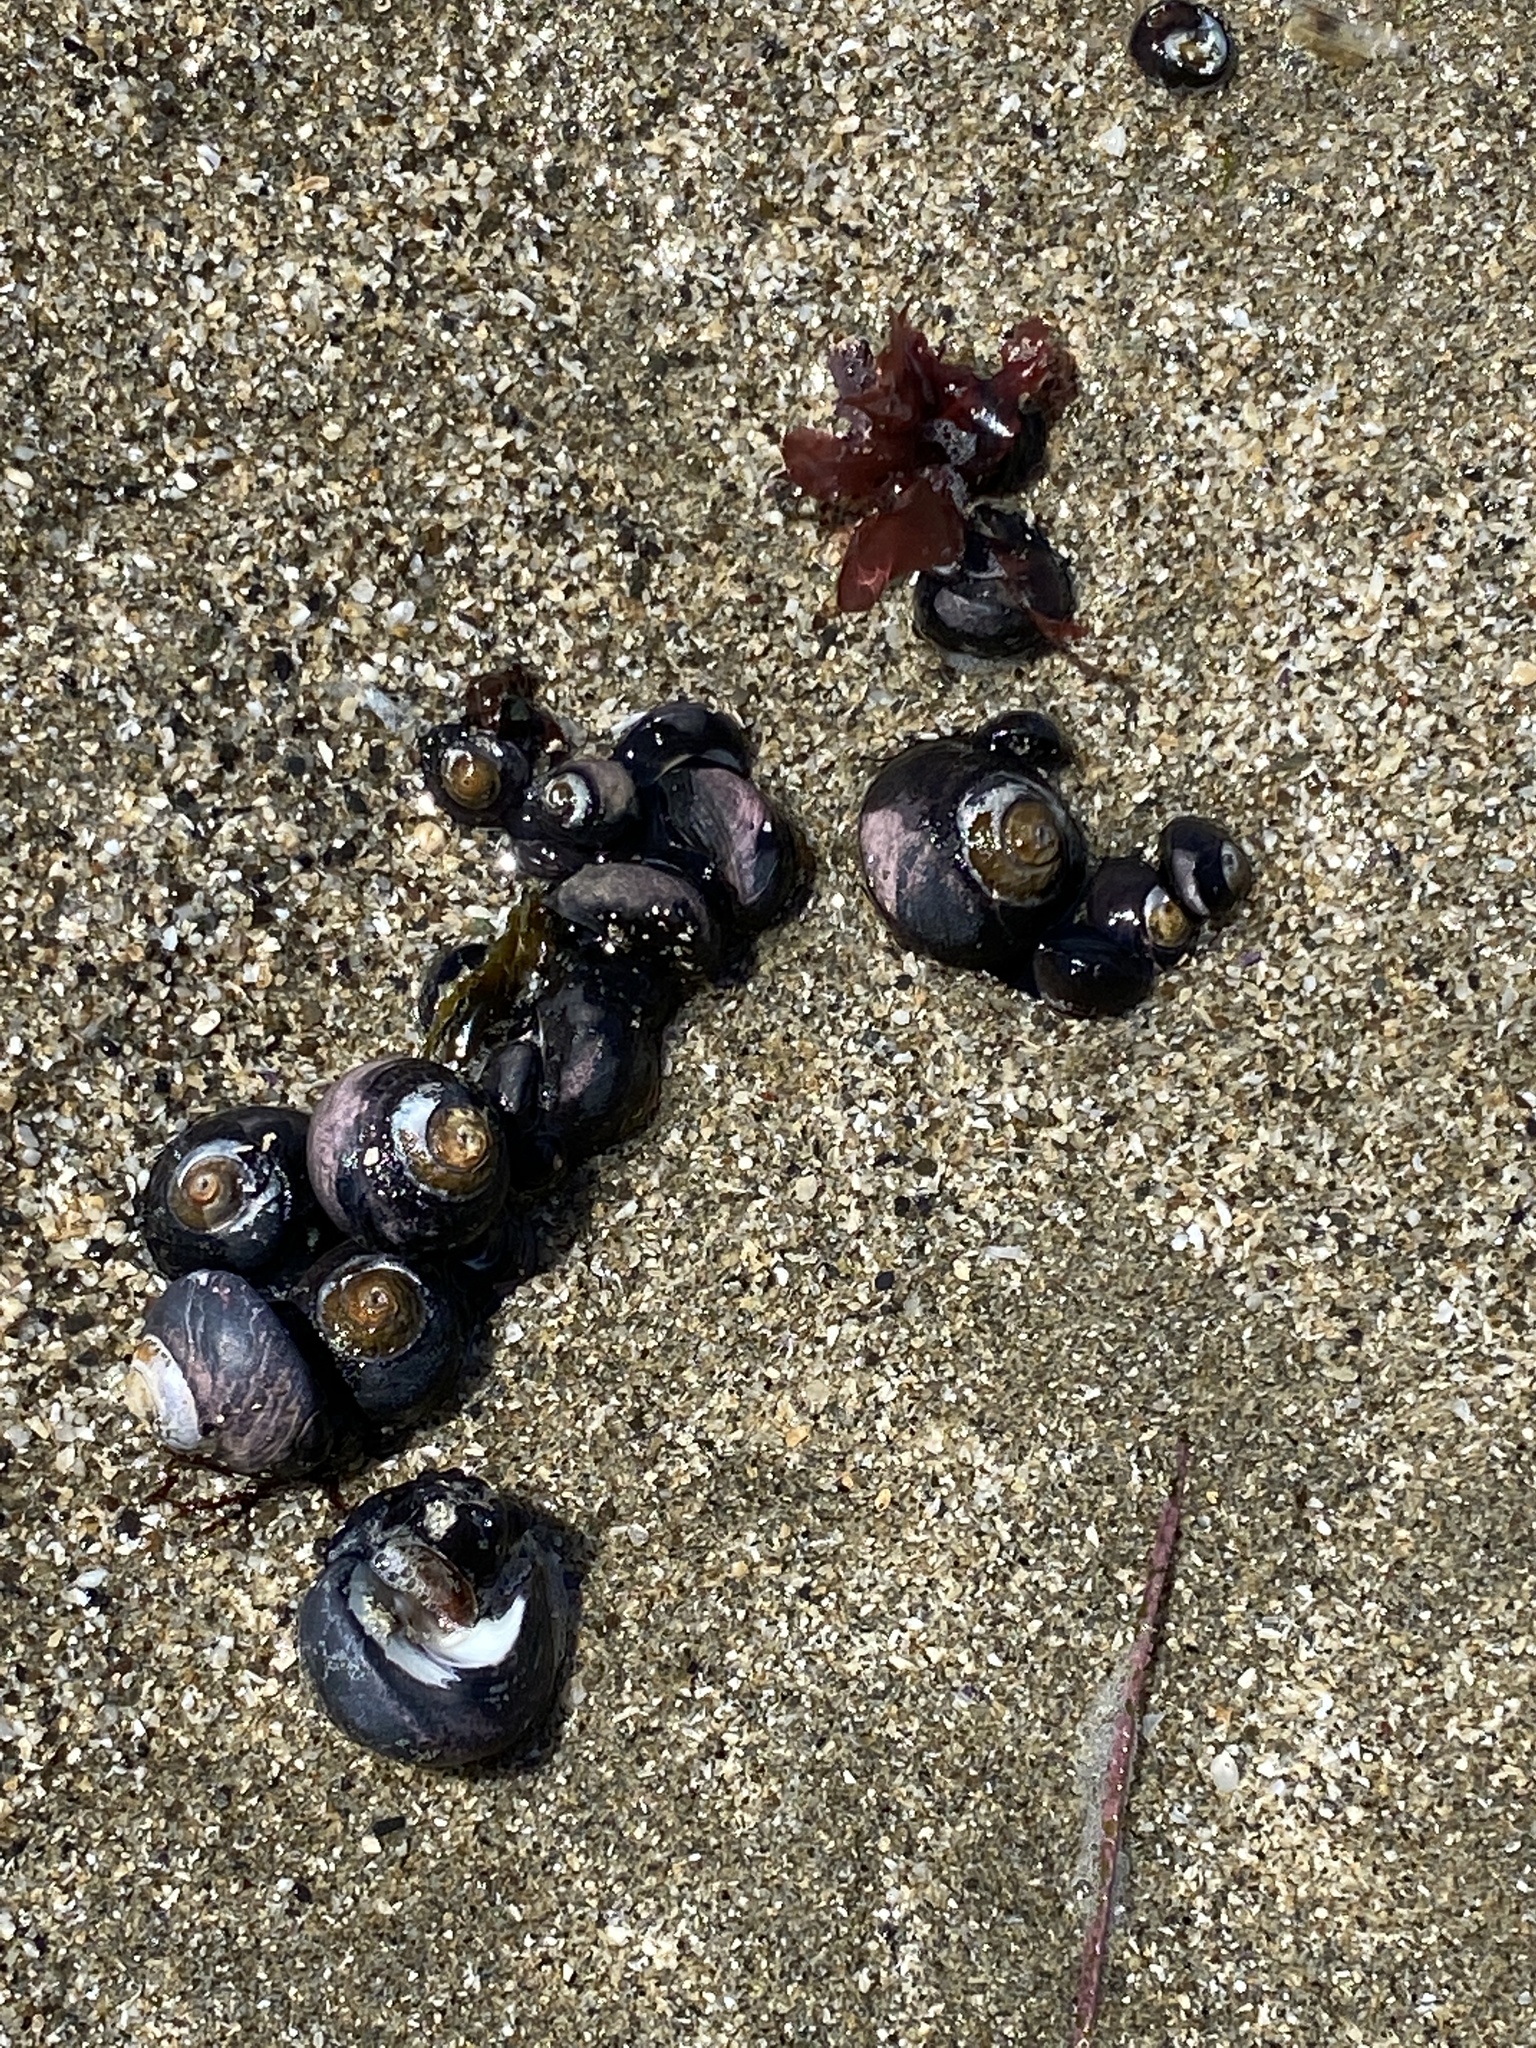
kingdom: Animalia
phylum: Mollusca
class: Gastropoda
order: Trochida
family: Tegulidae
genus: Tegula
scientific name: Tegula funebralis
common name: Black tegula
